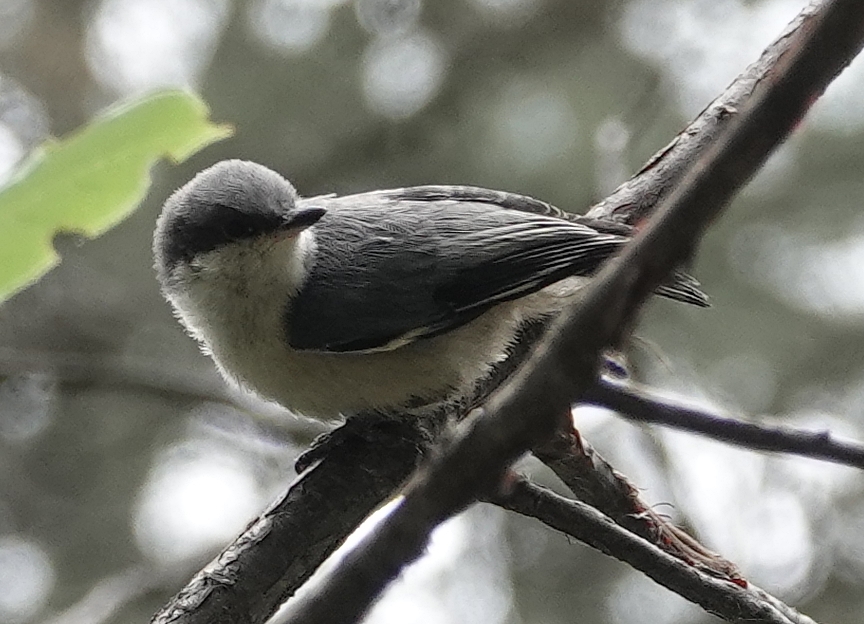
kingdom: Animalia
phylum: Chordata
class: Aves
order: Passeriformes
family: Sittidae
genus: Sitta
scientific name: Sitta pygmaea
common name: Pygmy nuthatch
